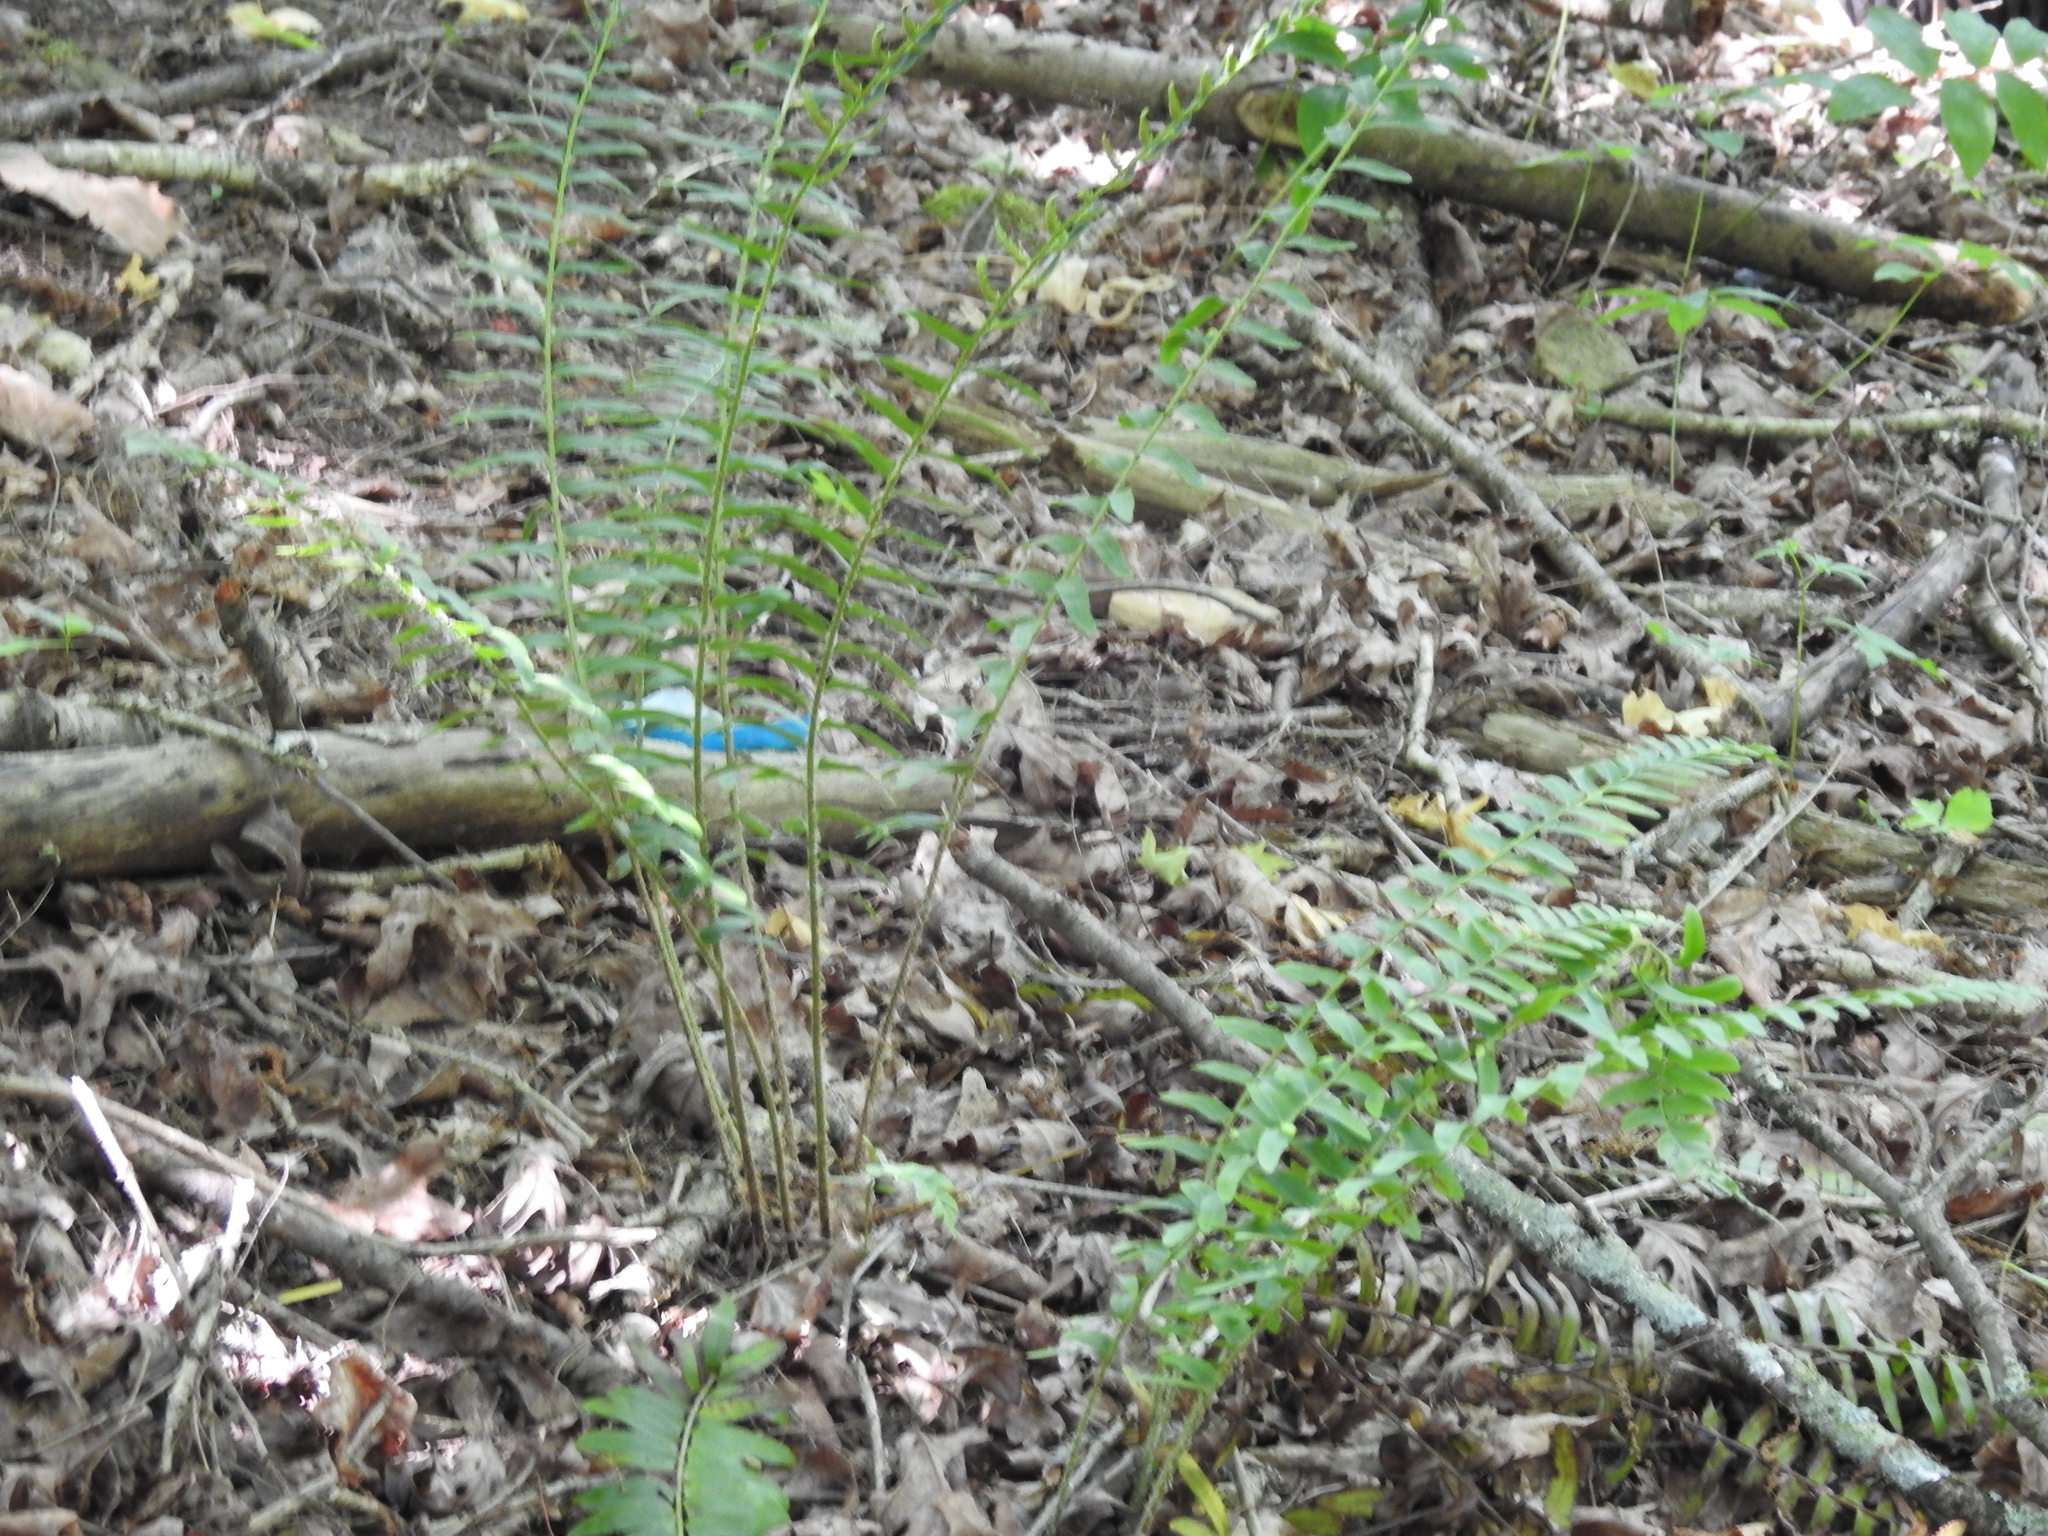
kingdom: Plantae
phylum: Tracheophyta
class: Polypodiopsida
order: Polypodiales
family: Dryopteridaceae
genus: Polystichum
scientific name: Polystichum acrostichoides
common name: Christmas fern
